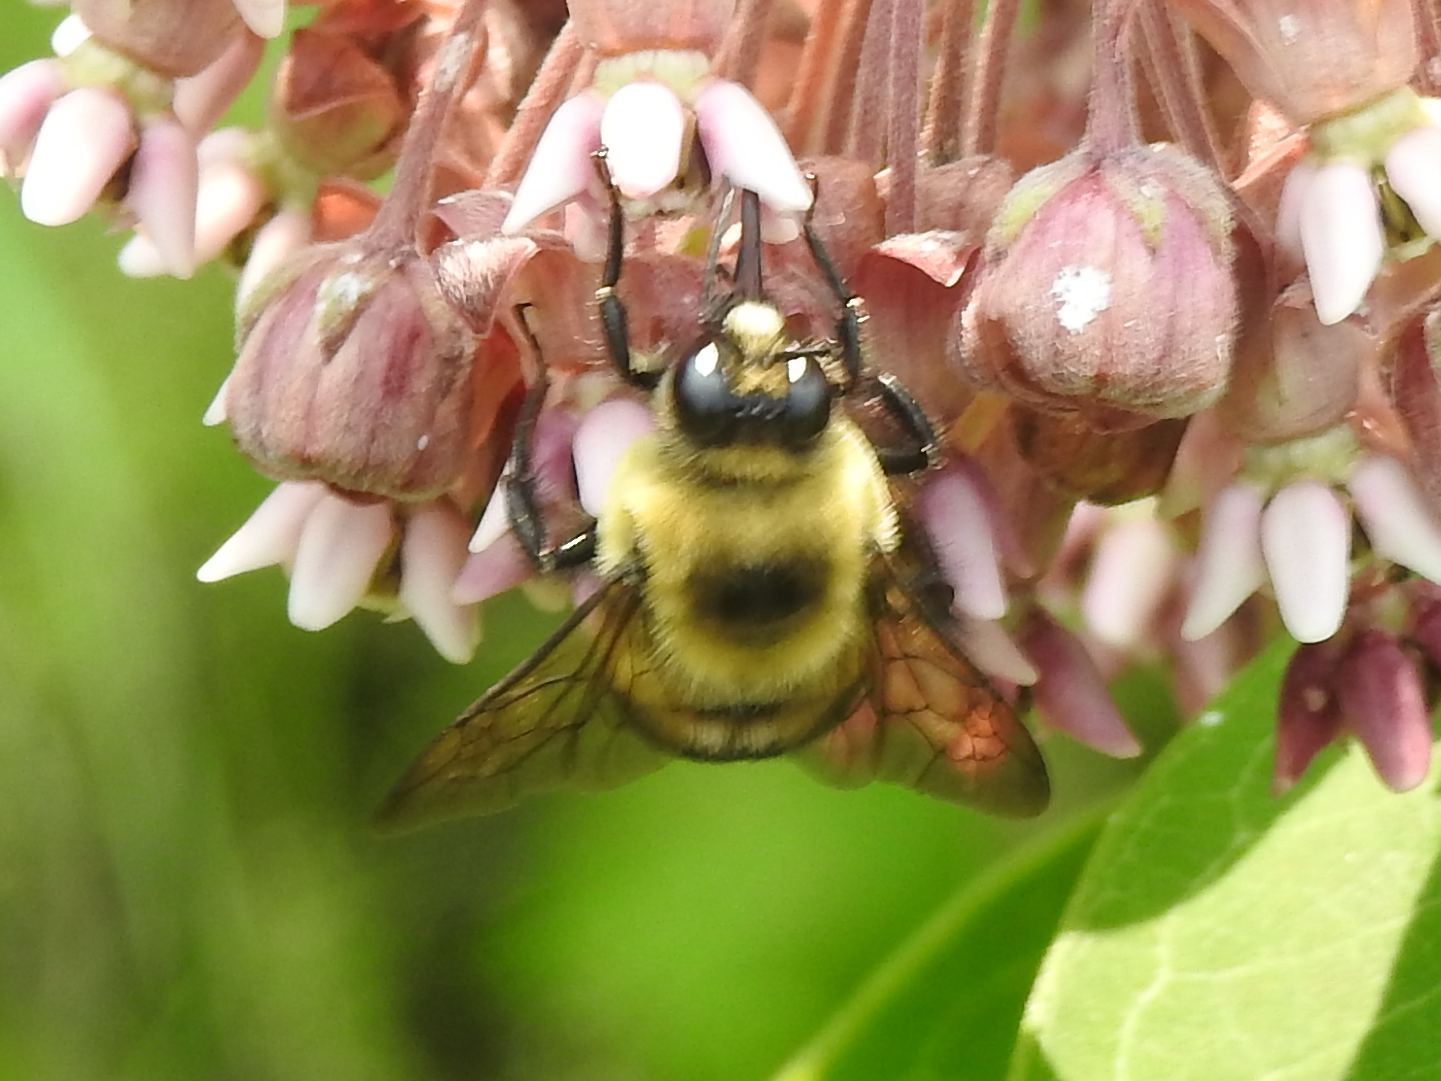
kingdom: Animalia
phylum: Arthropoda
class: Insecta
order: Hymenoptera
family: Apidae
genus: Bombus
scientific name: Bombus griseocollis
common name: Brown-belted bumble bee
